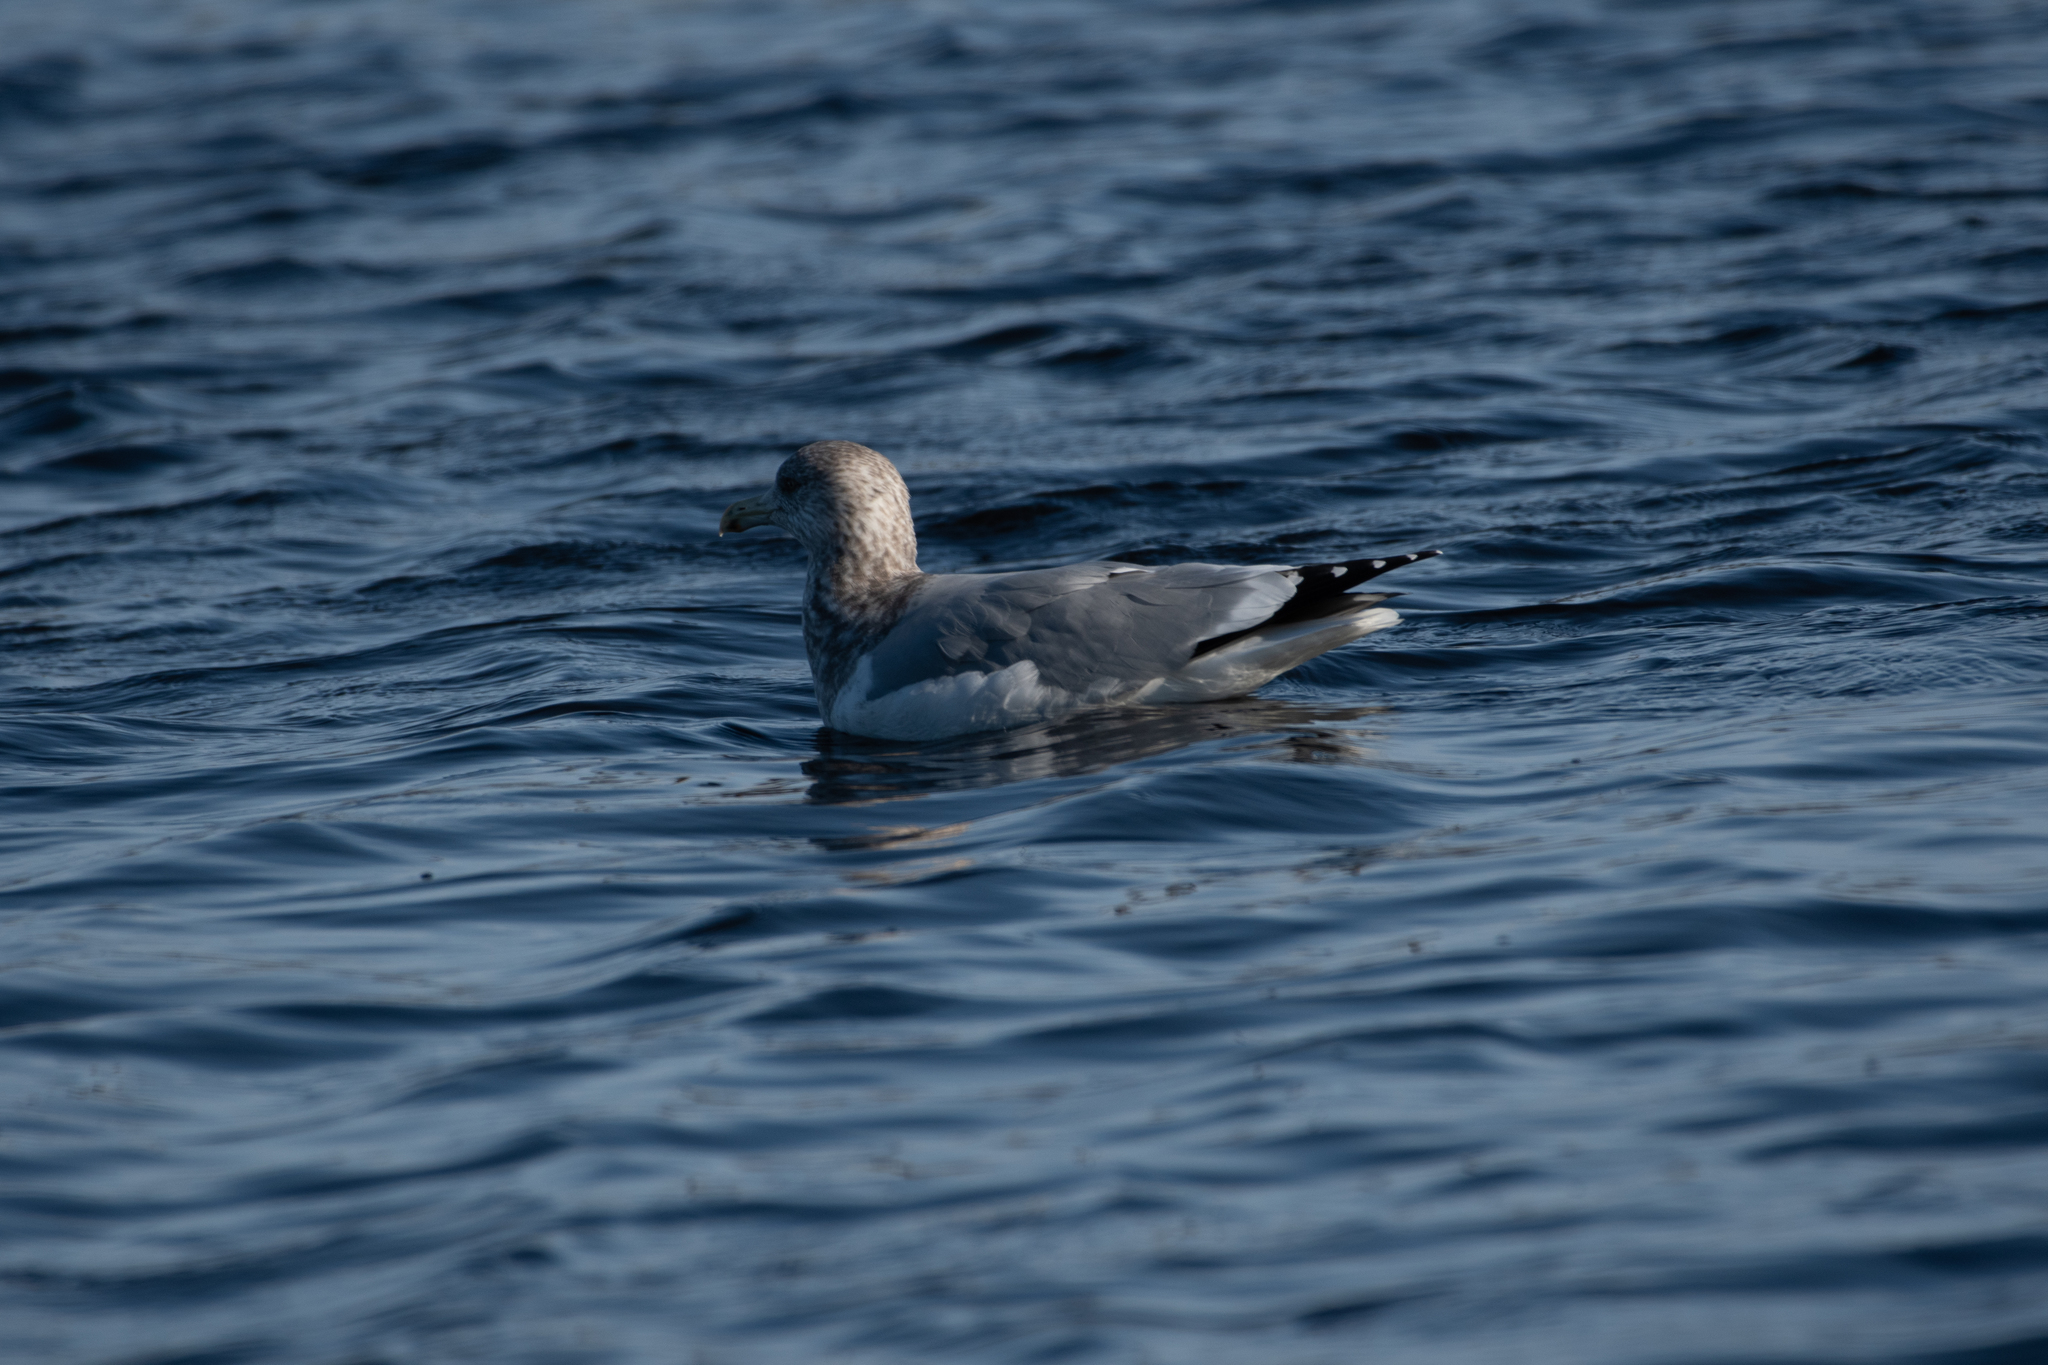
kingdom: Animalia
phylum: Chordata
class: Aves
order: Charadriiformes
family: Laridae
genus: Larus
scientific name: Larus argentatus
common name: Herring gull
